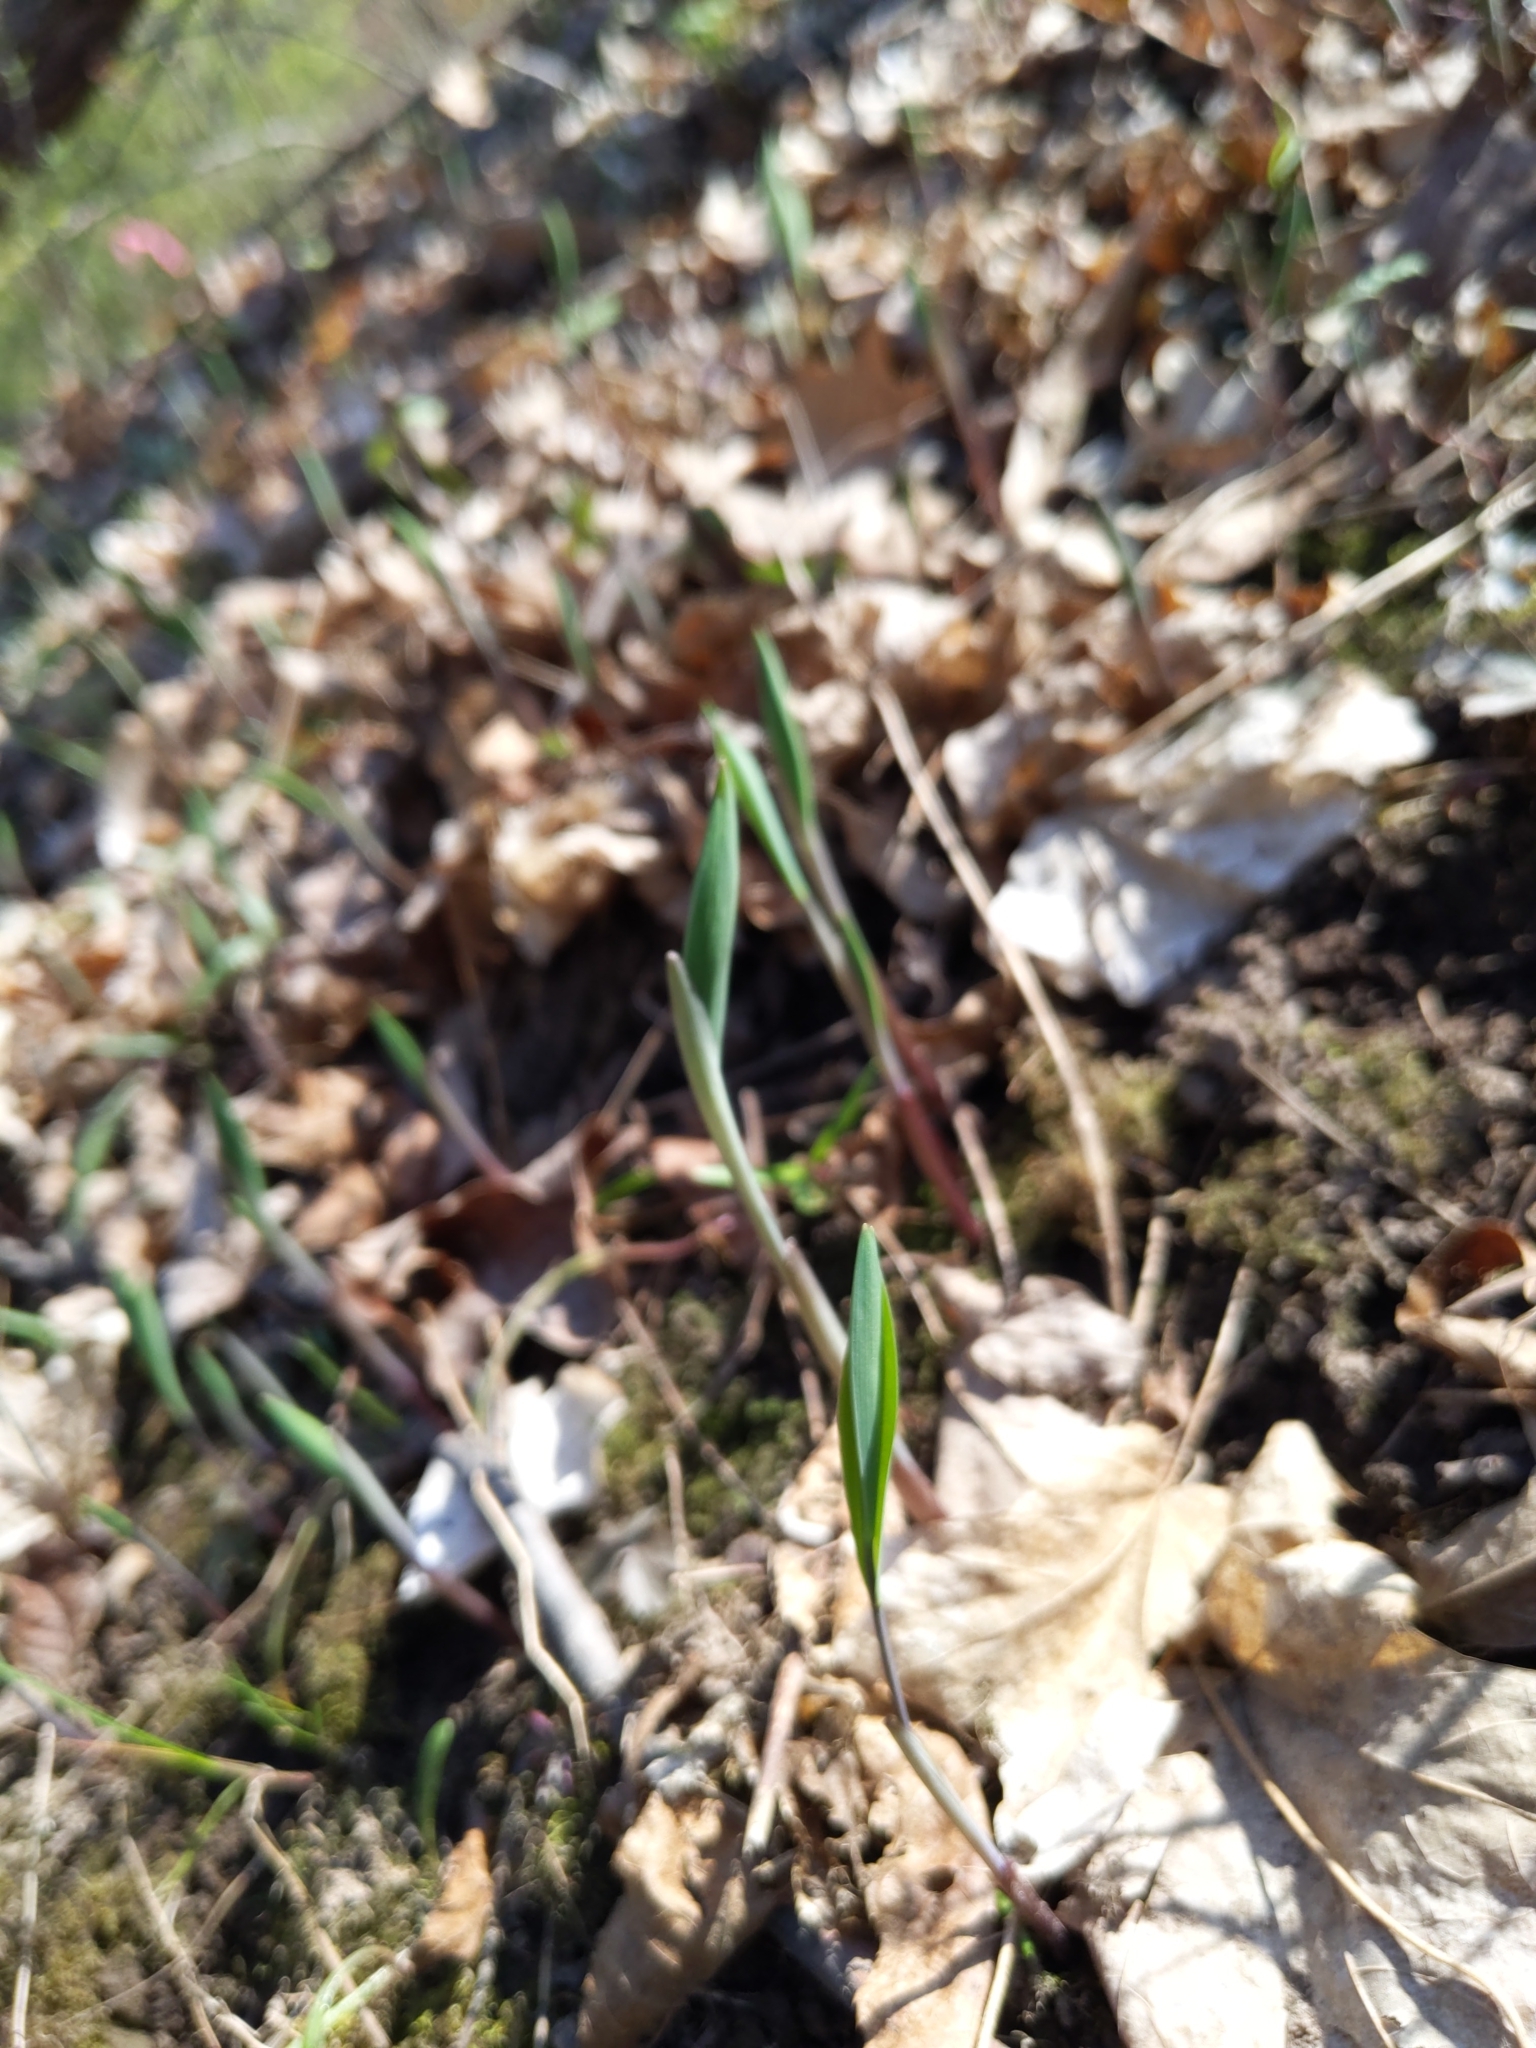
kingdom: Plantae
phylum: Tracheophyta
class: Liliopsida
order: Liliales
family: Colchicaceae
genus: Uvularia
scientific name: Uvularia sessilifolia
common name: Straw-lily
